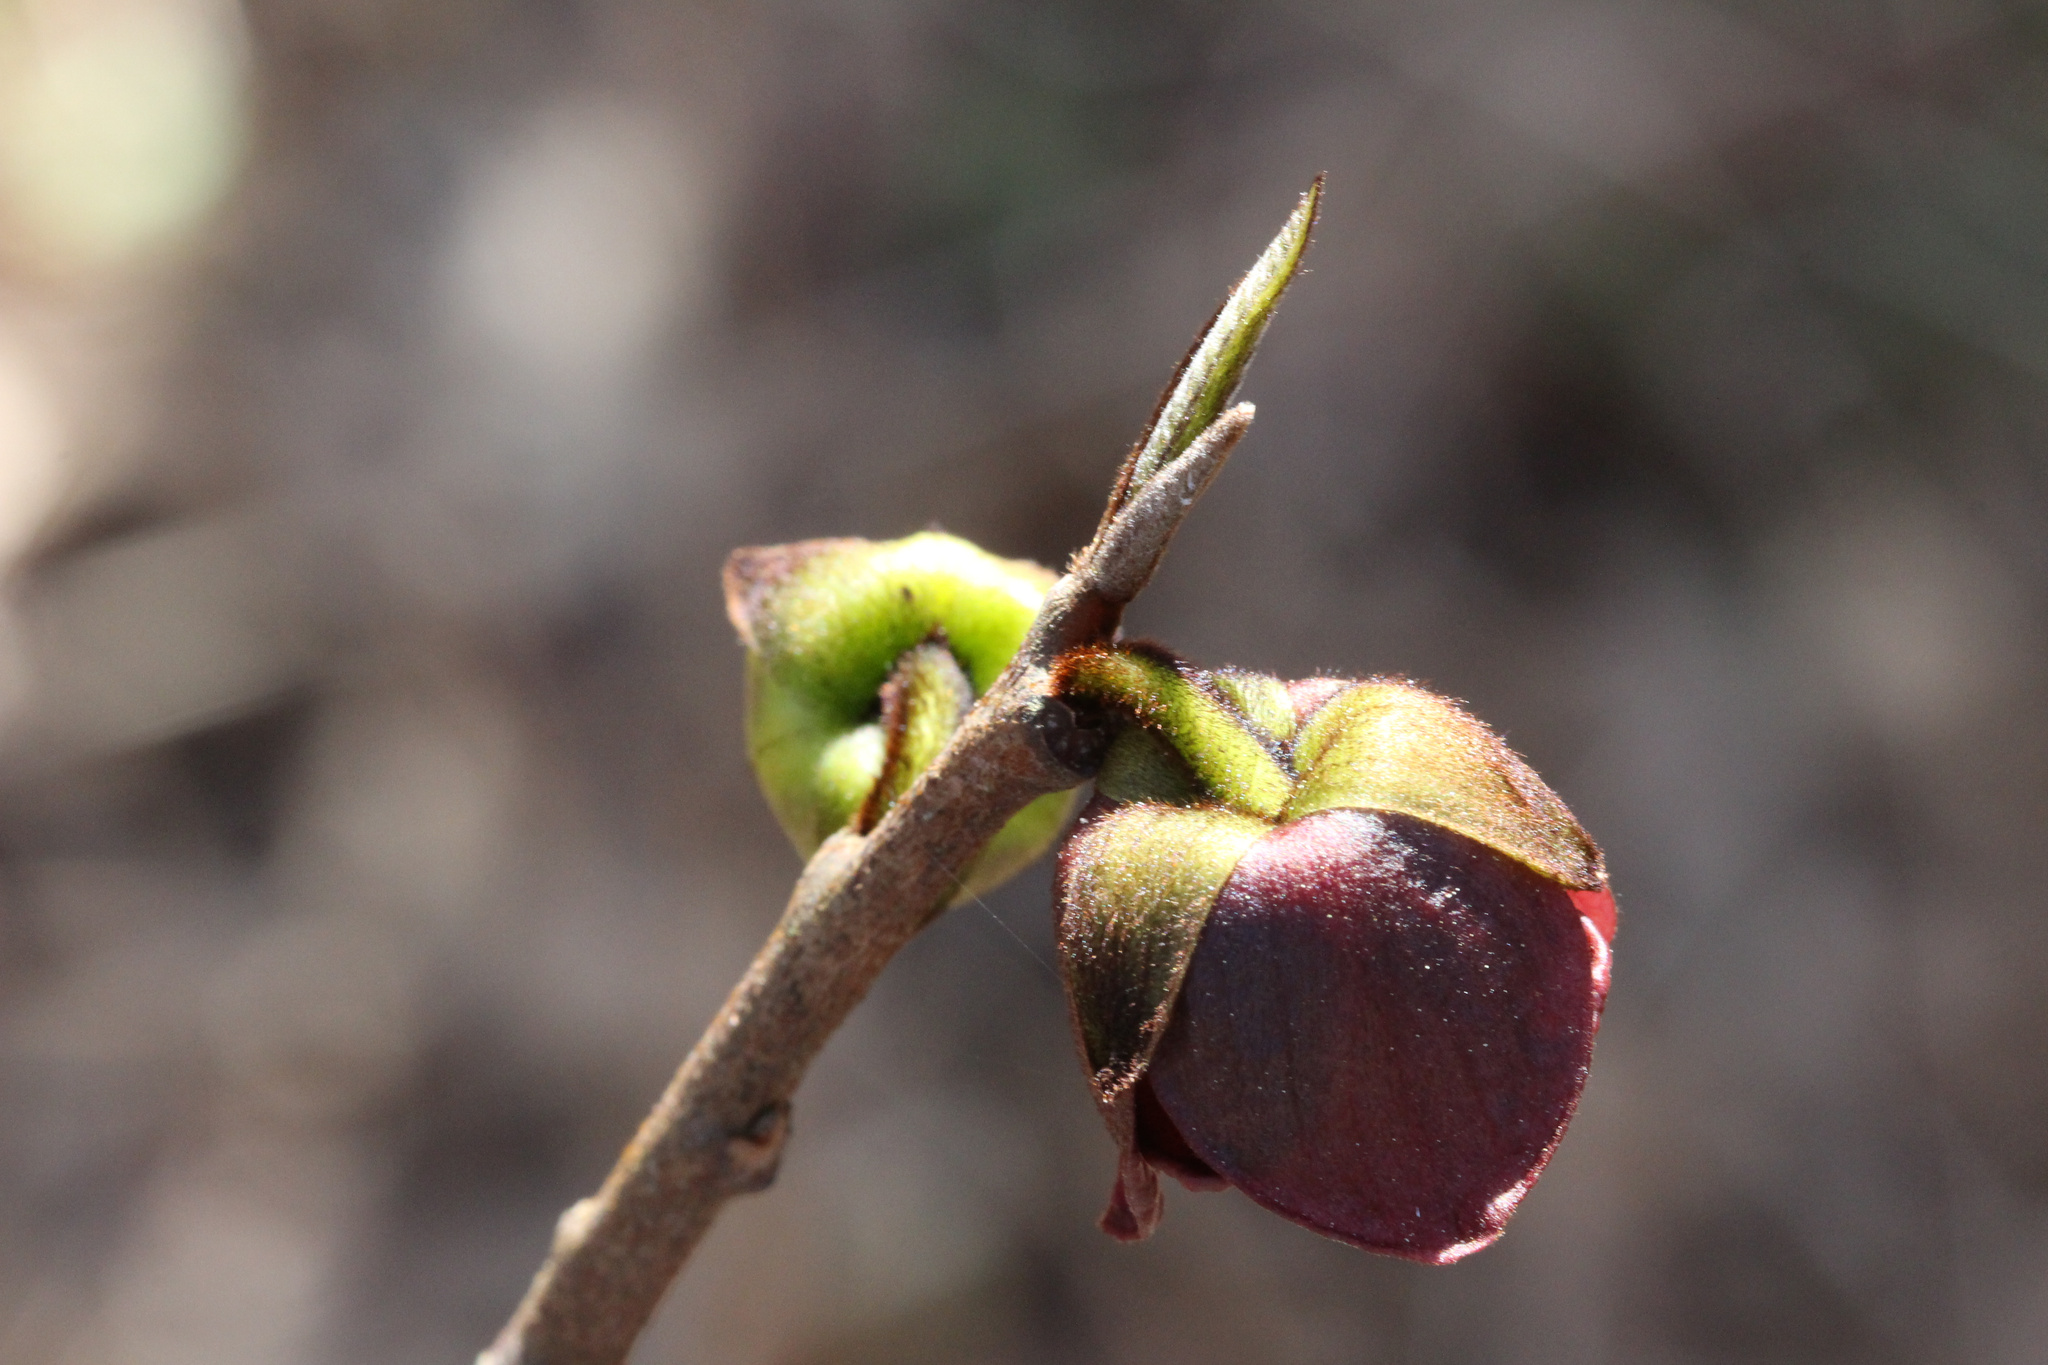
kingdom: Plantae
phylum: Tracheophyta
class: Magnoliopsida
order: Magnoliales
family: Annonaceae
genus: Asimina
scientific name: Asimina triloba
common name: Dog-banana
